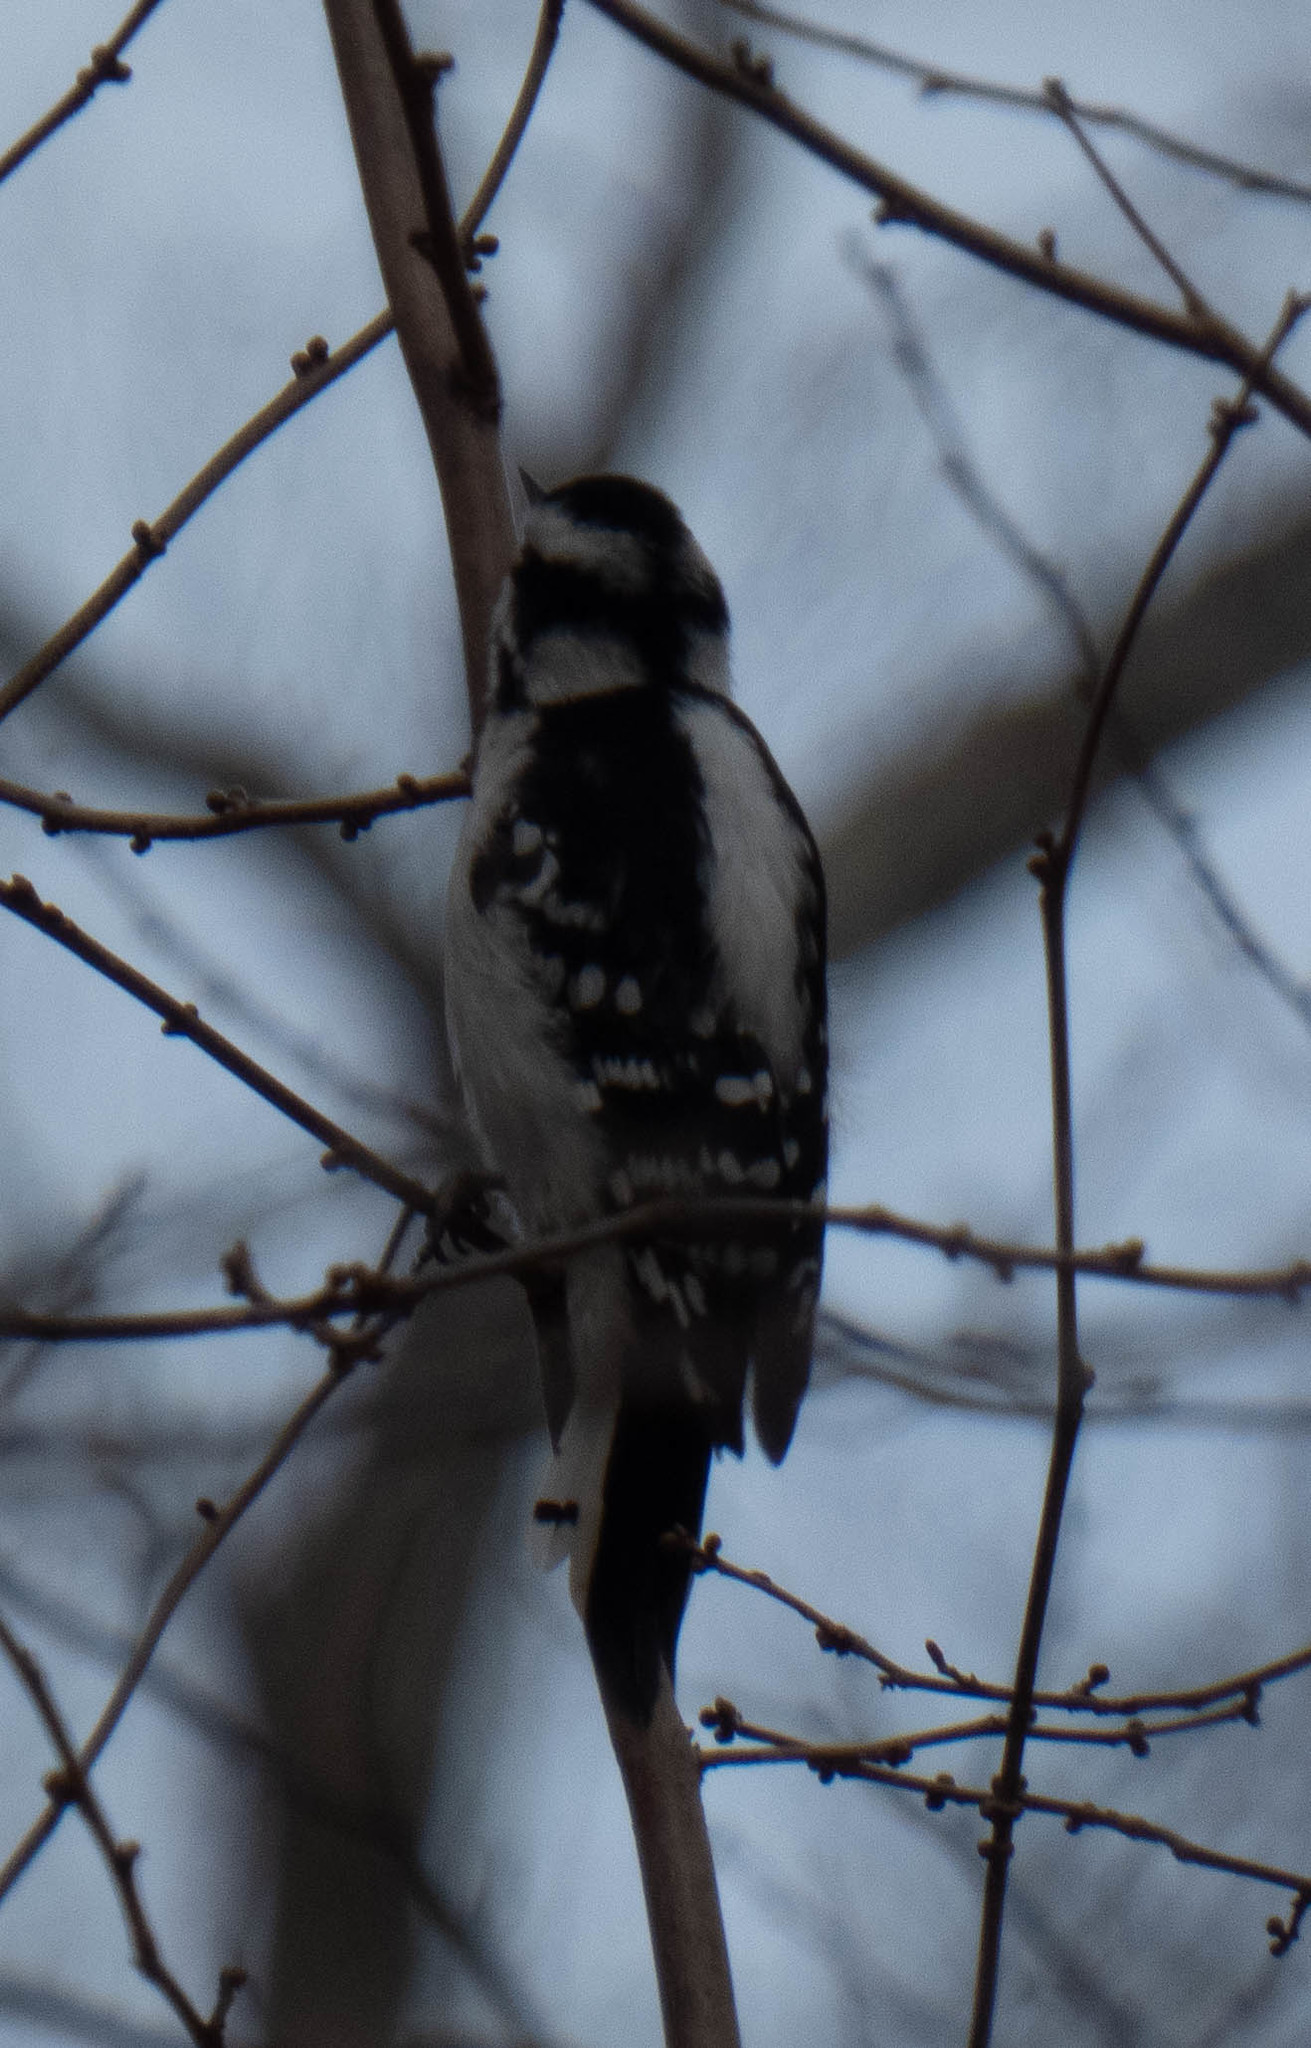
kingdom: Animalia
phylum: Chordata
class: Aves
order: Piciformes
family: Picidae
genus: Dryobates
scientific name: Dryobates pubescens
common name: Downy woodpecker
